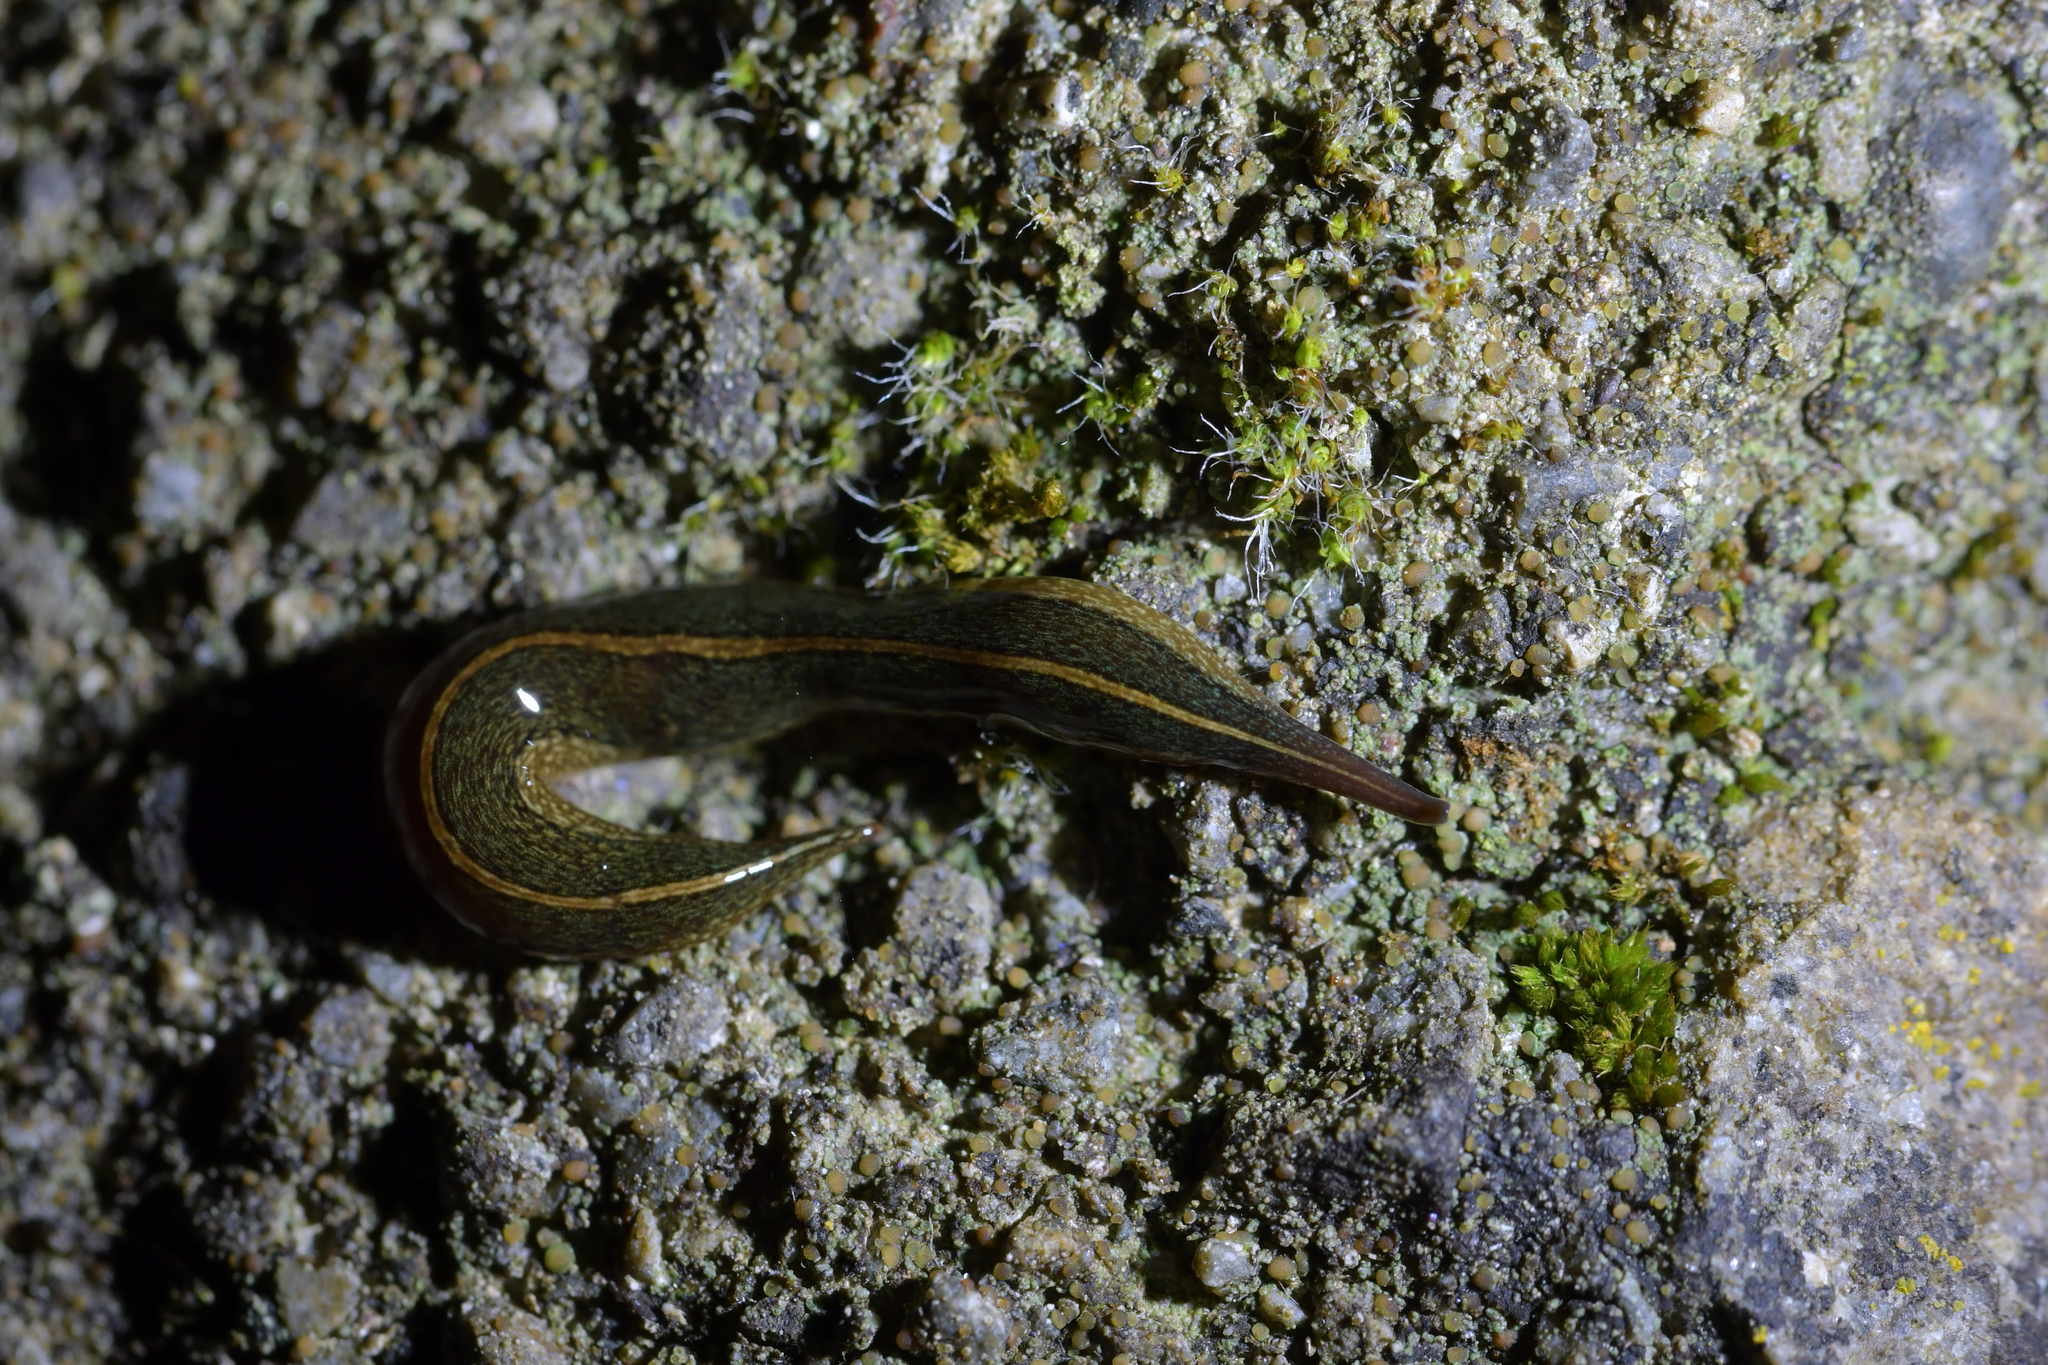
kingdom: Animalia
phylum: Platyhelminthes
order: Tricladida
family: Geoplanidae
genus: Newzealandia
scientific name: Newzealandia graffii
